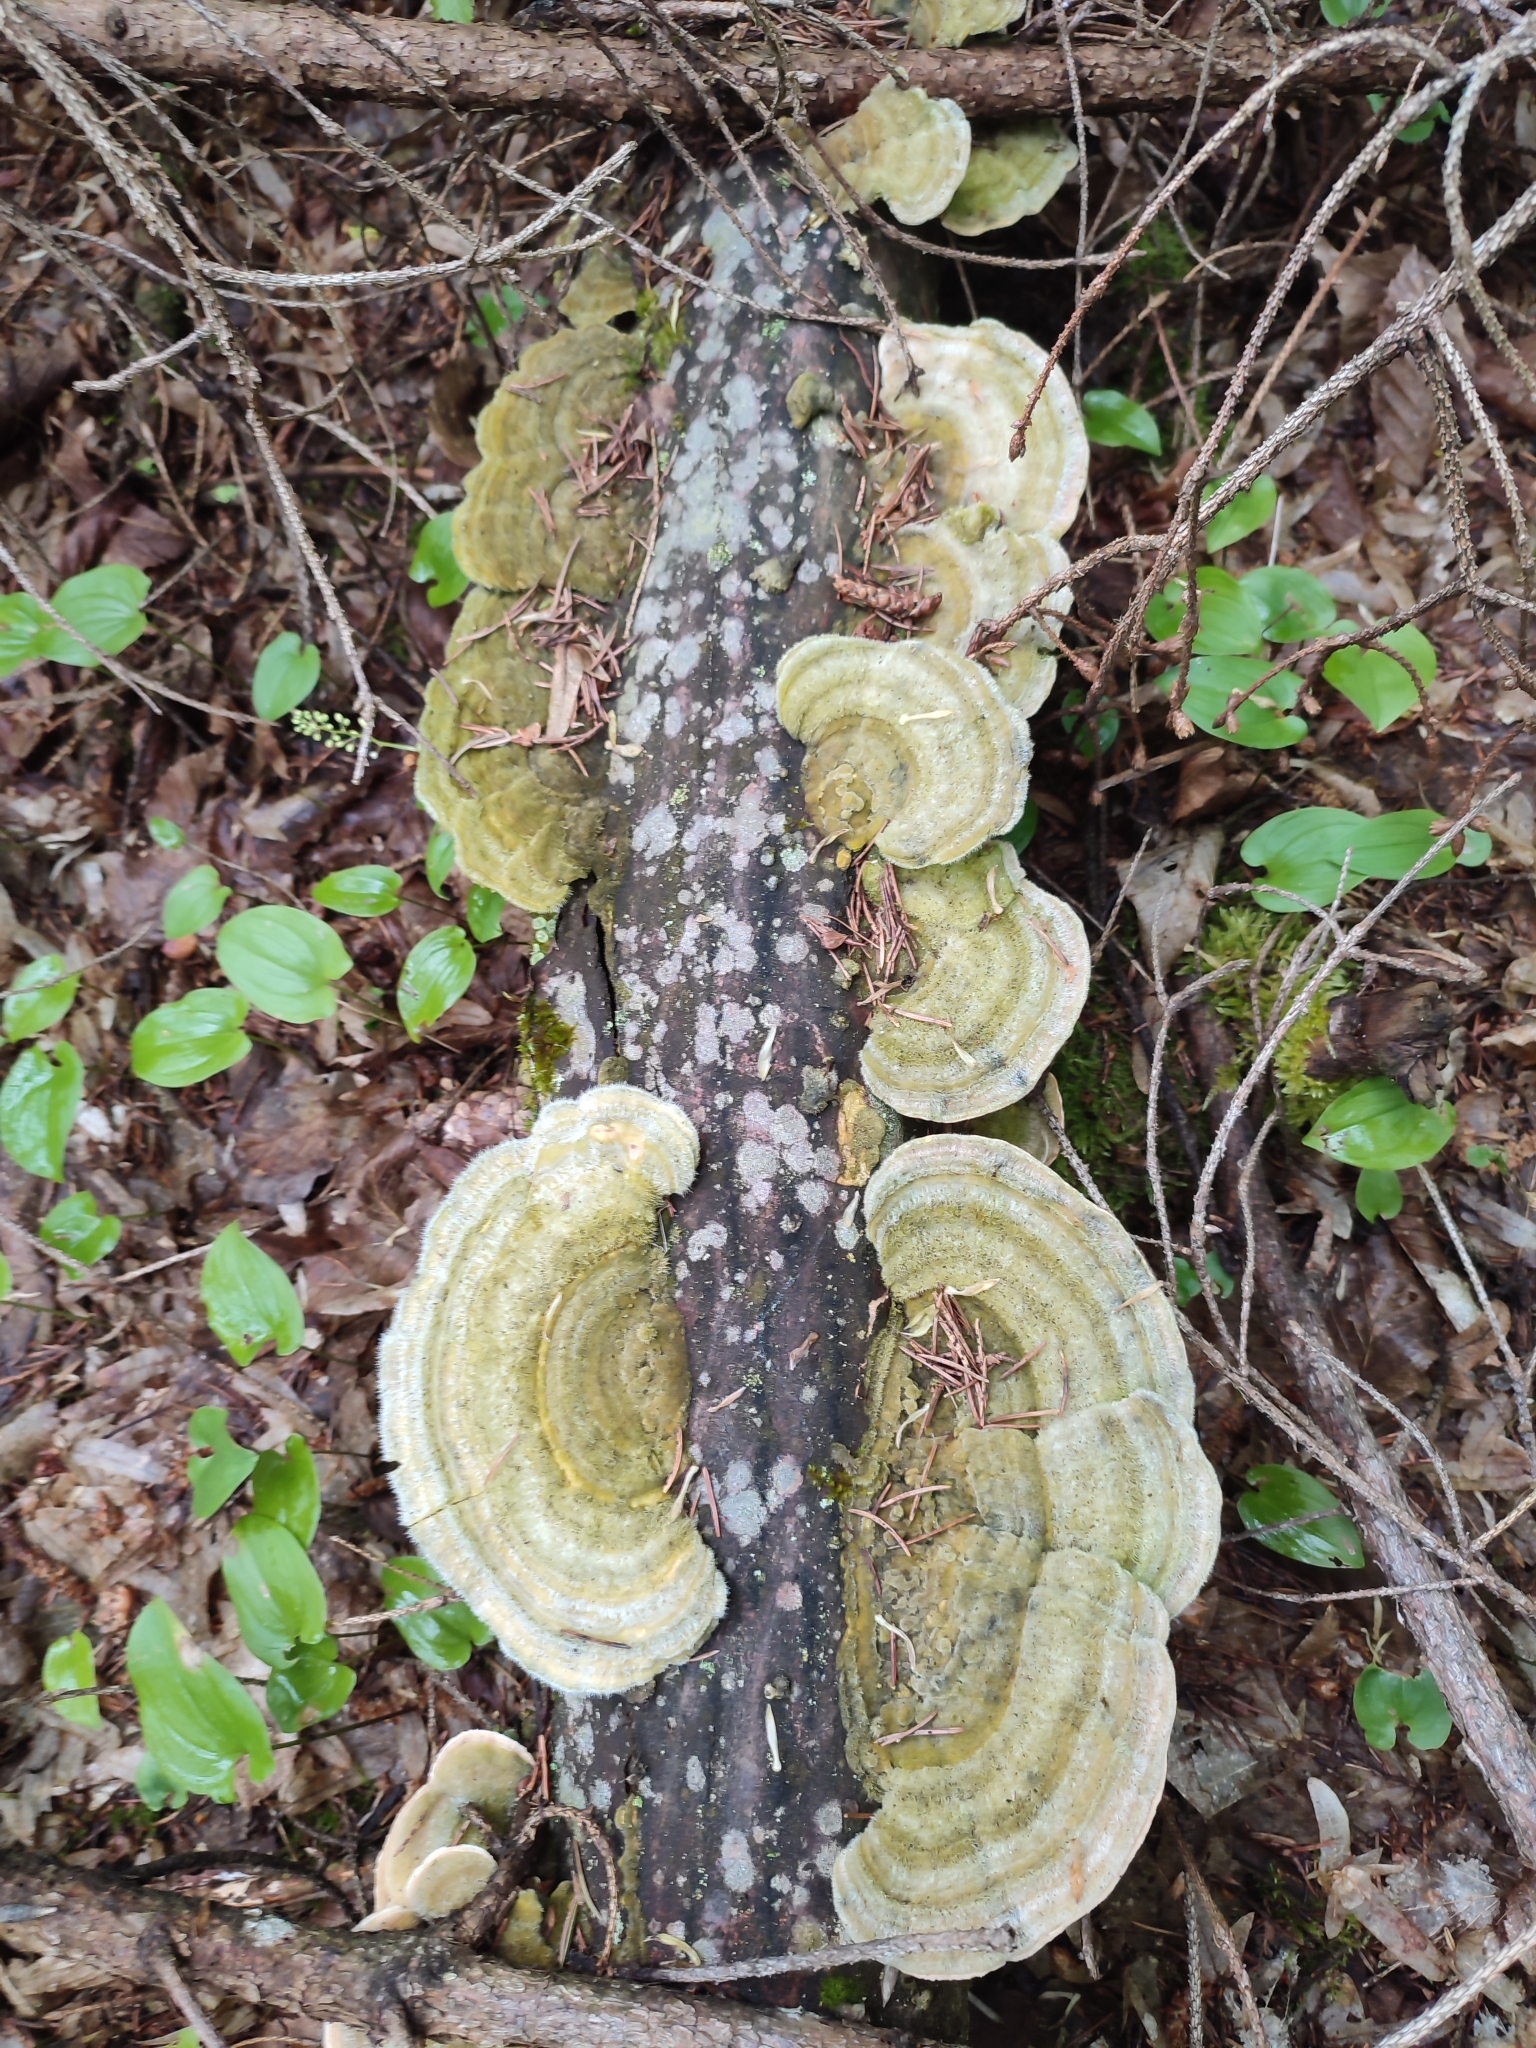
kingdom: Fungi
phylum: Basidiomycota
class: Agaricomycetes
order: Polyporales
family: Polyporaceae
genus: Trametes
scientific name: Trametes versicolor
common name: Turkeytail
